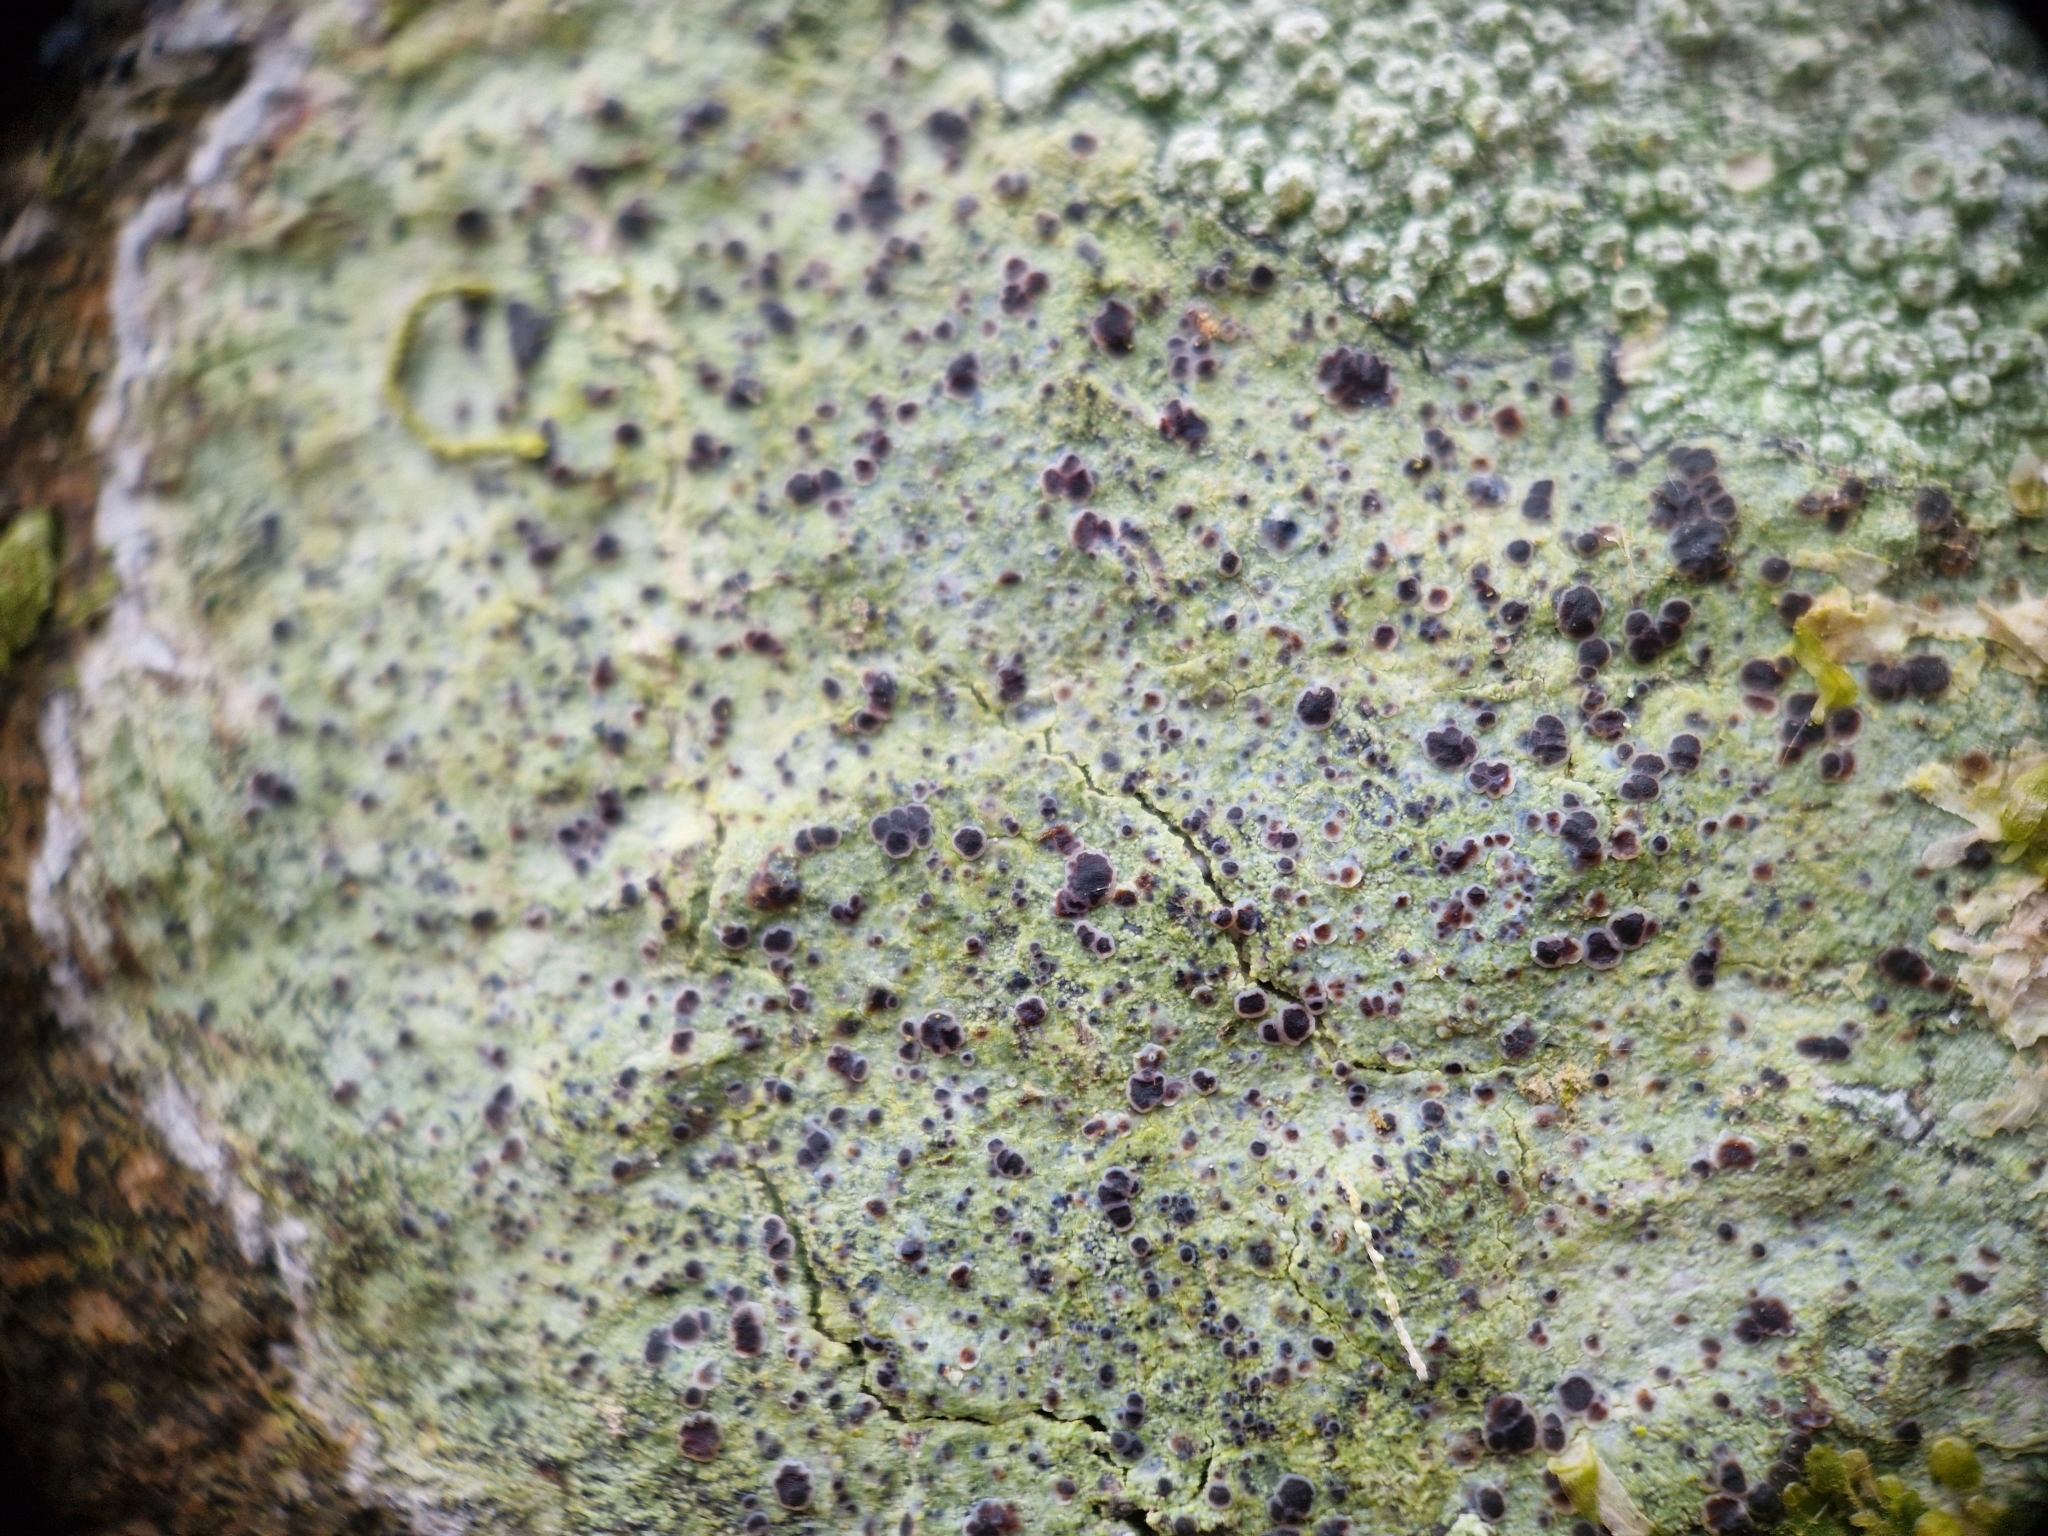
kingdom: Fungi
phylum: Ascomycota
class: Lecanoromycetes
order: Lecanorales
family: Ramalinaceae
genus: Megalaria
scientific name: Megalaria laureri
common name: Laurer's catillaria
